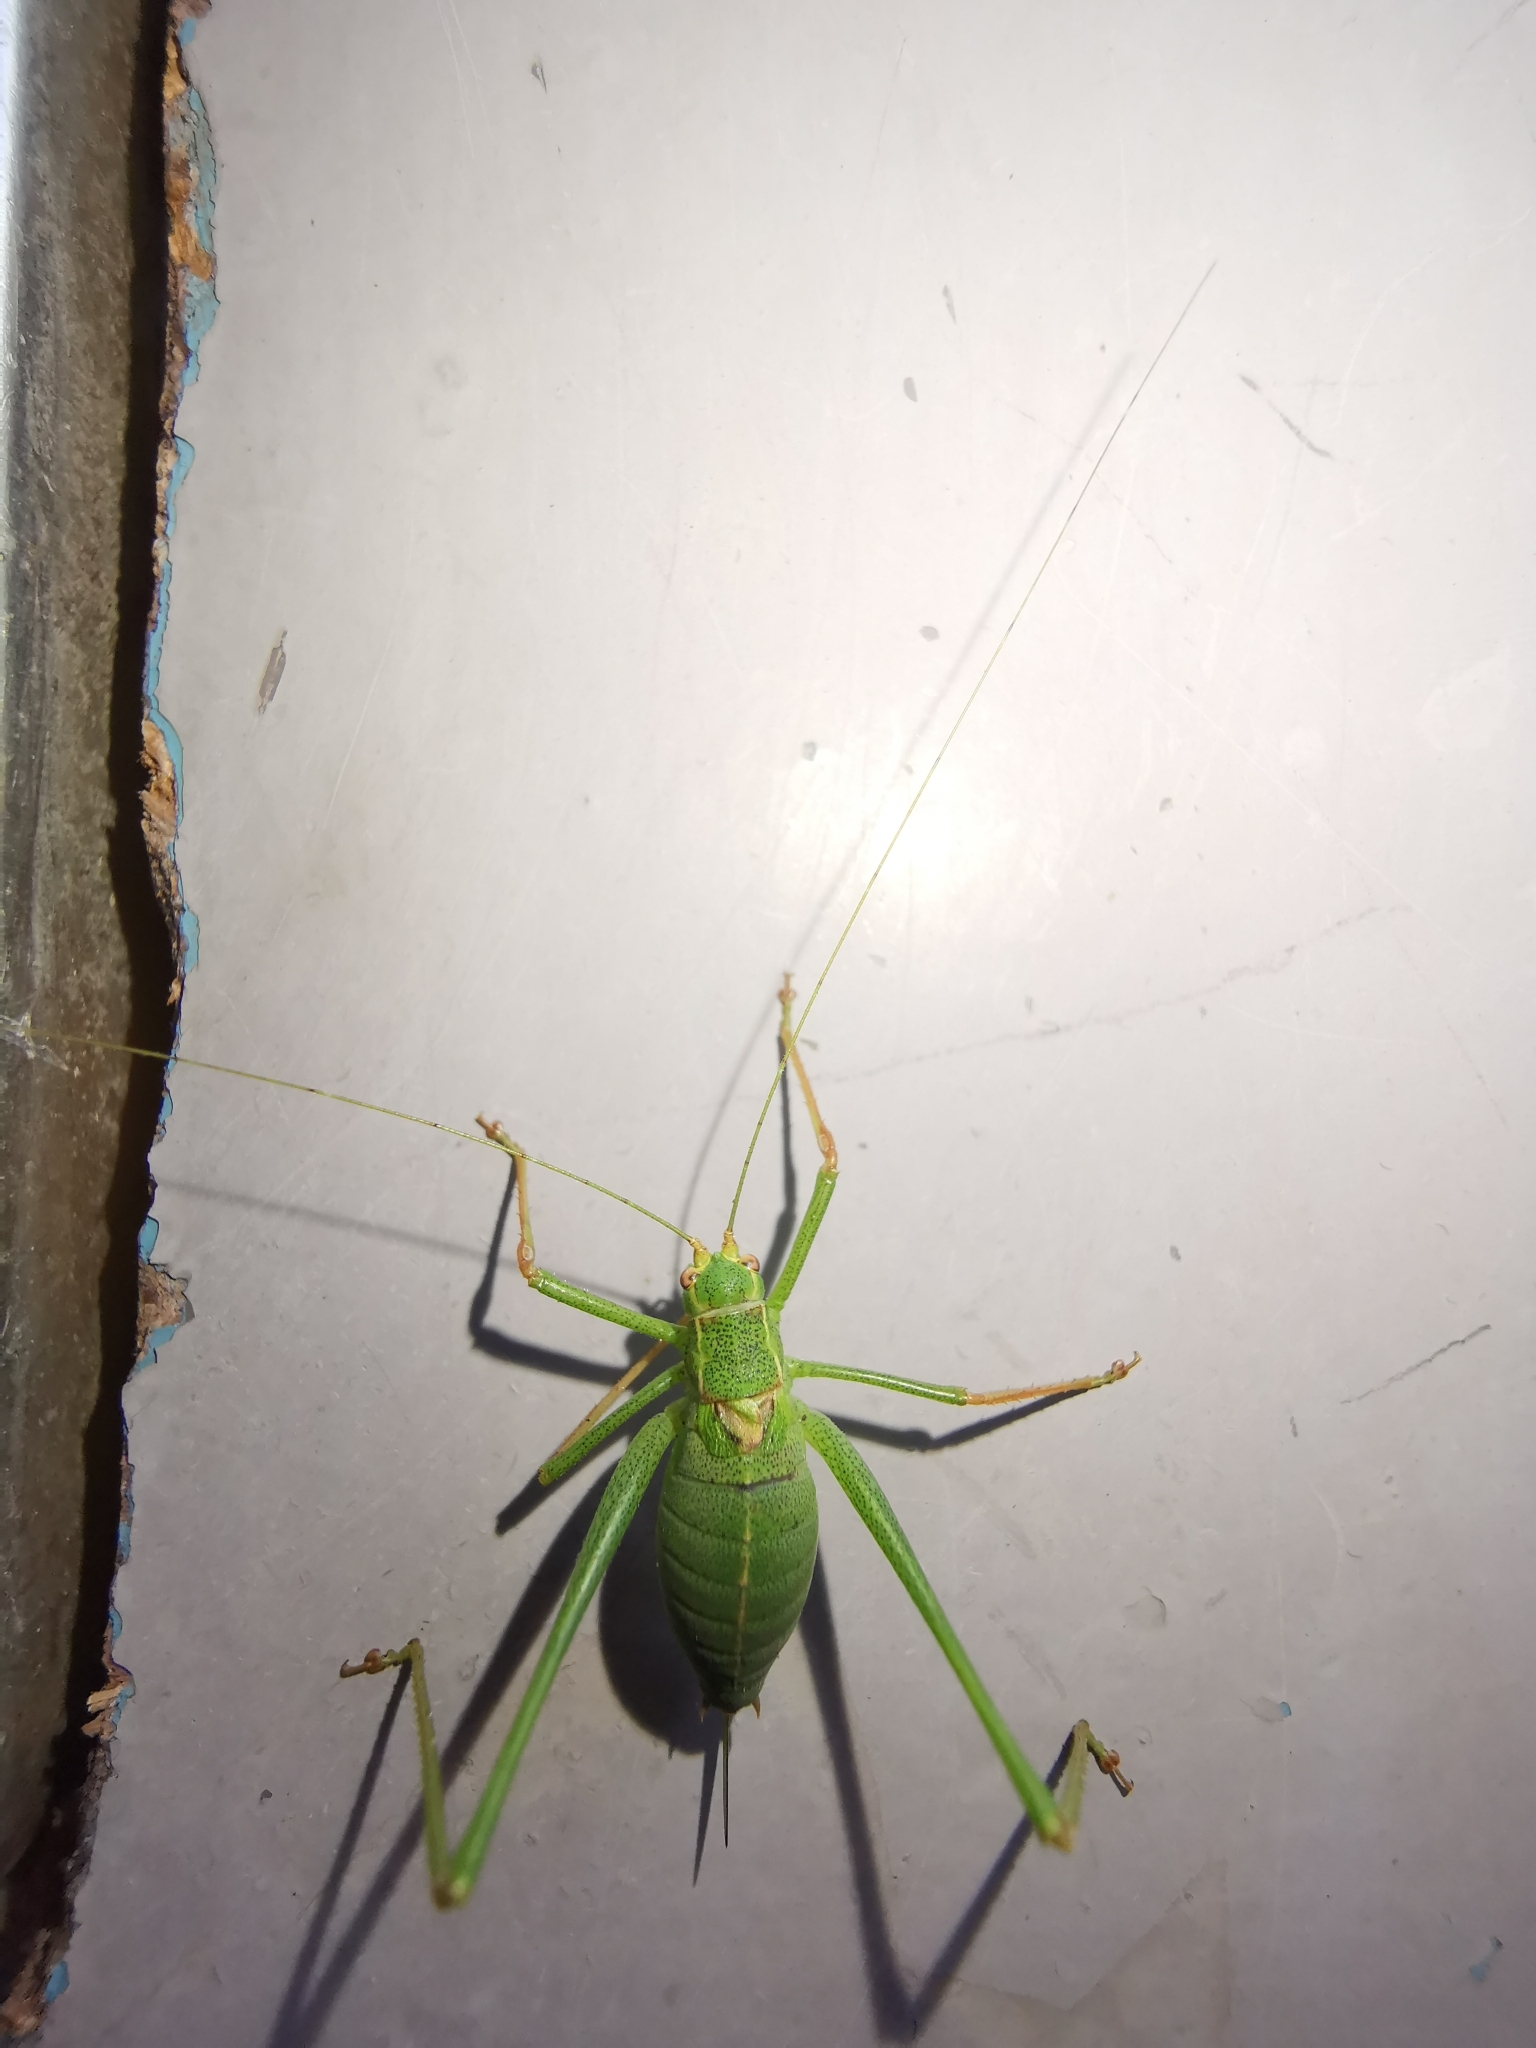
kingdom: Animalia
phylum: Arthropoda
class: Insecta
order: Orthoptera
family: Tettigoniidae
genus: Leptophyes
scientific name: Leptophyes punctatissima
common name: Speckled bush-cricket
